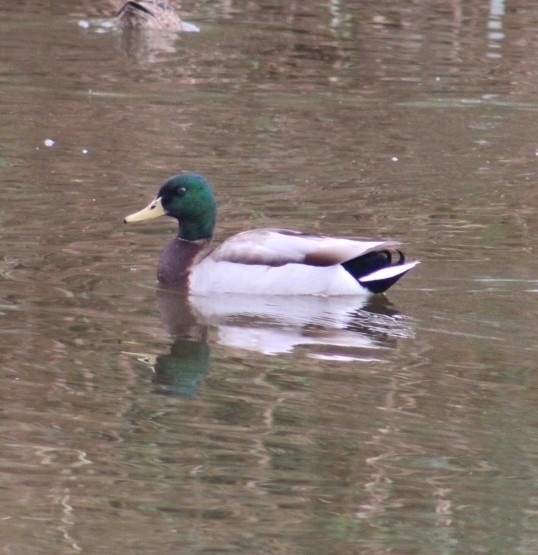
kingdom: Animalia
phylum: Chordata
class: Aves
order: Anseriformes
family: Anatidae
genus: Anas
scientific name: Anas platyrhynchos
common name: Mallard
